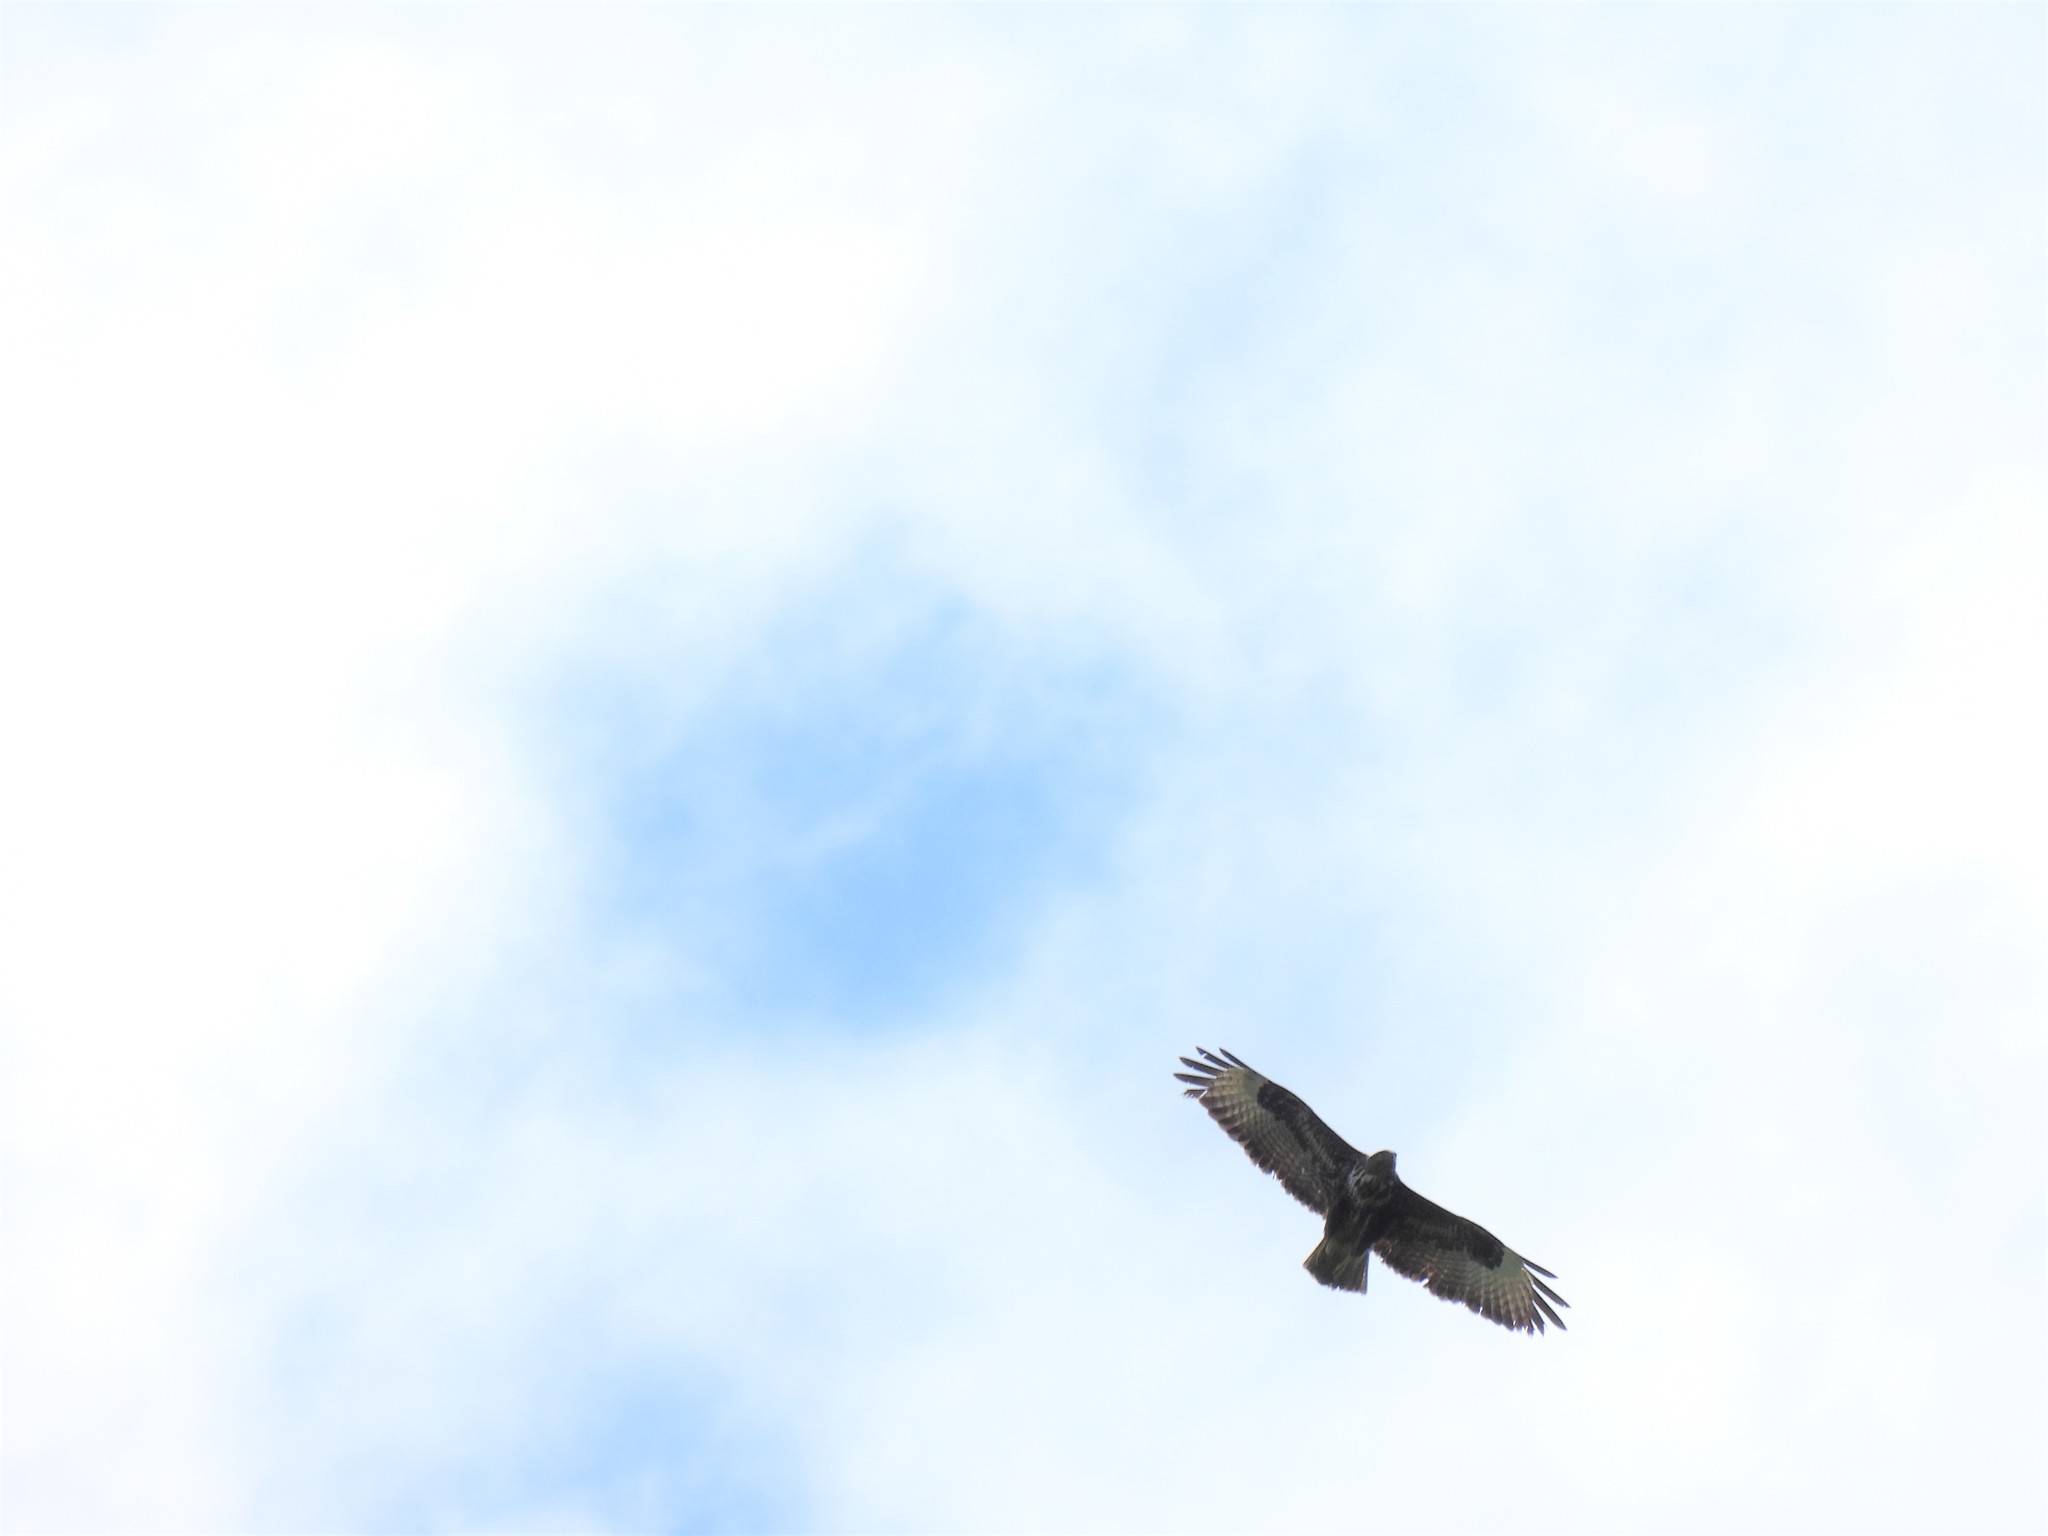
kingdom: Animalia
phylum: Chordata
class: Aves
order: Accipitriformes
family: Accipitridae
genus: Buteo
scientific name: Buteo buteo
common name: Common buzzard
